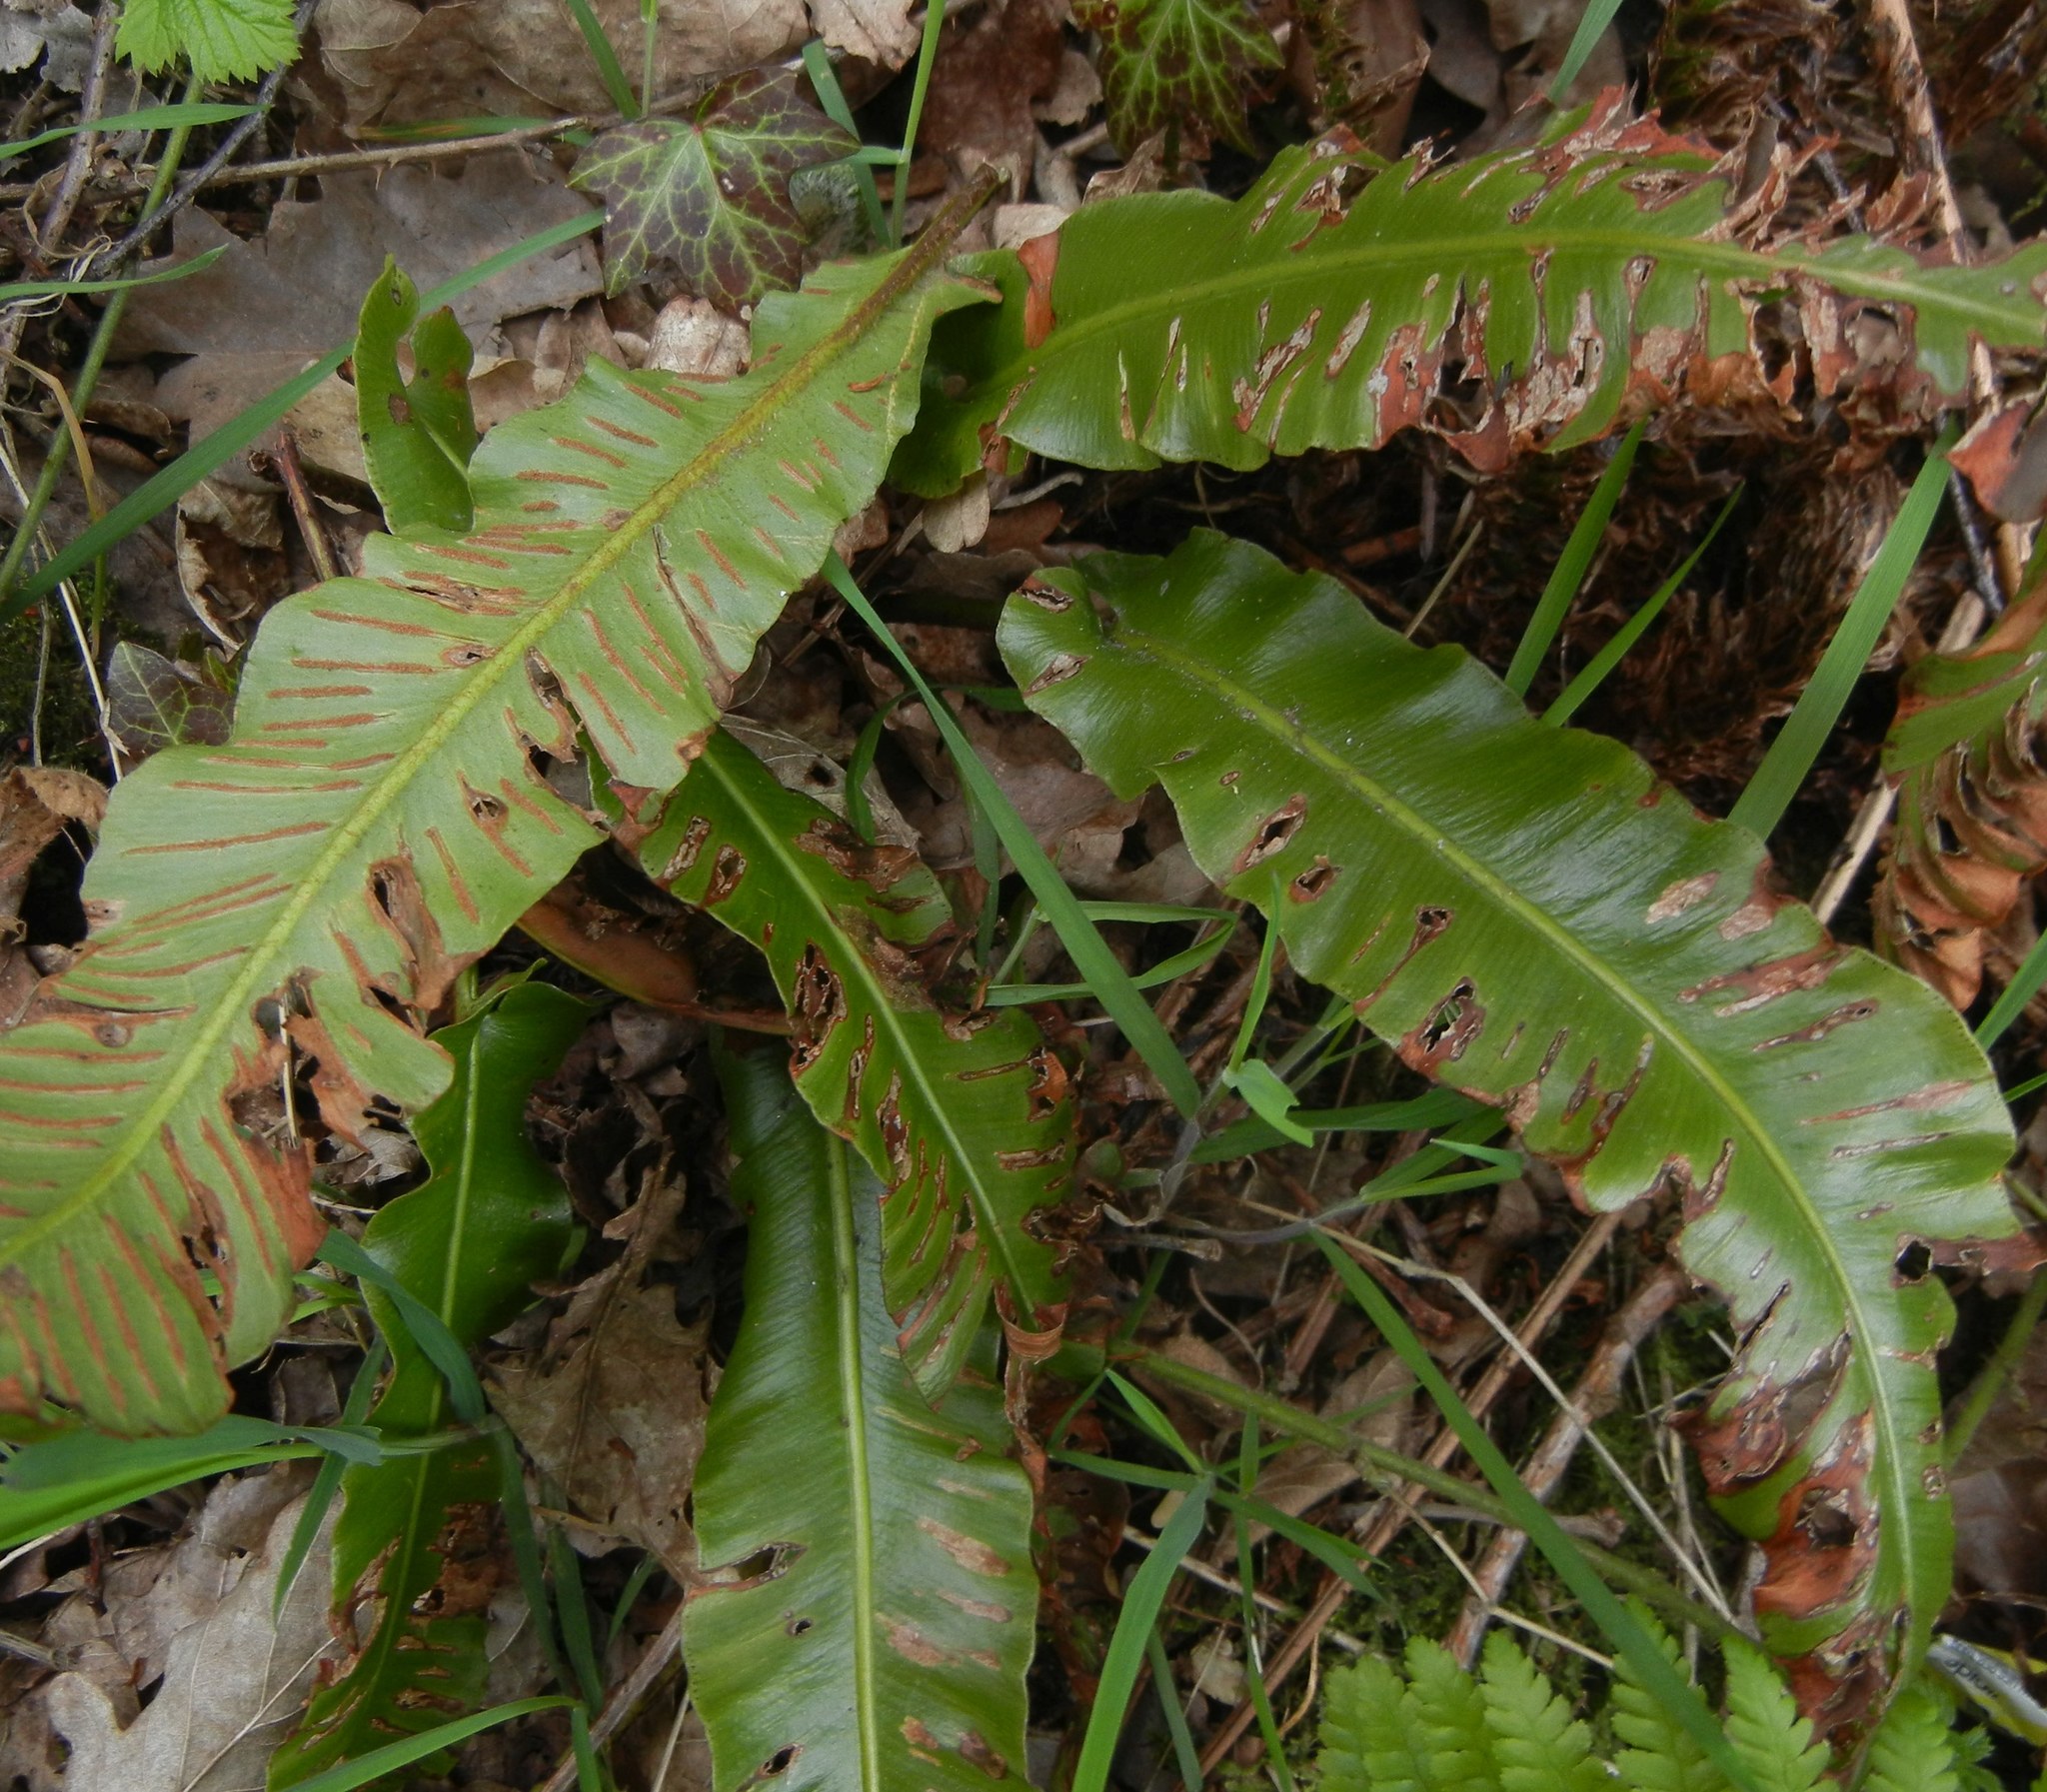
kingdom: Plantae
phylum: Tracheophyta
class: Polypodiopsida
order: Polypodiales
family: Aspleniaceae
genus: Asplenium
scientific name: Asplenium scolopendrium
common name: Hart's-tongue fern
